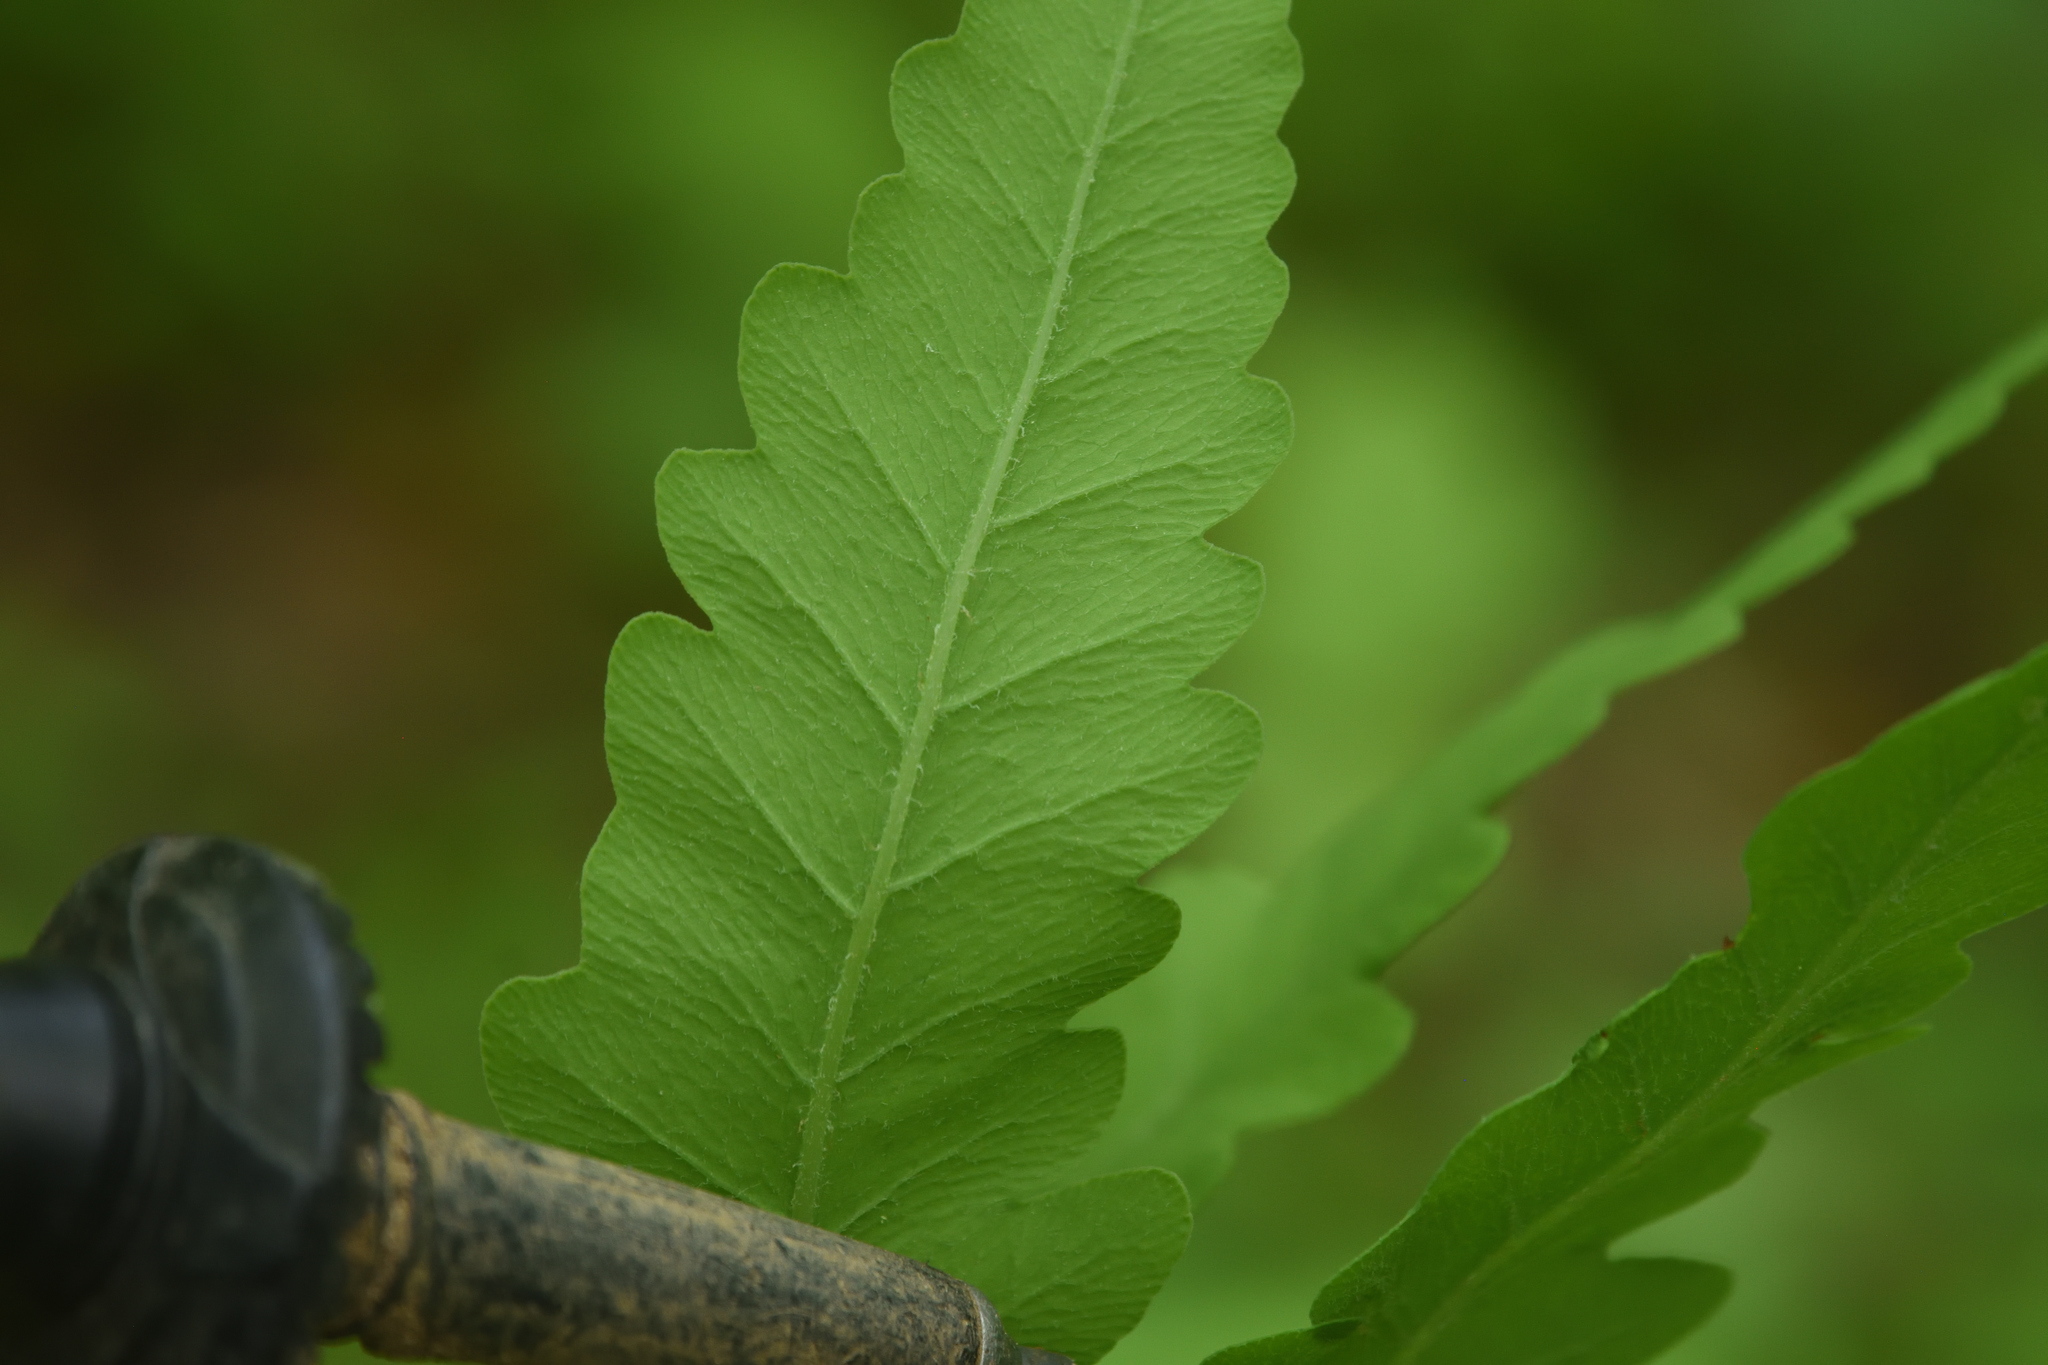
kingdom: Plantae
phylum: Tracheophyta
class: Polypodiopsida
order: Polypodiales
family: Onocleaceae
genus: Onoclea
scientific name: Onoclea sensibilis
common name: Sensitive fern
